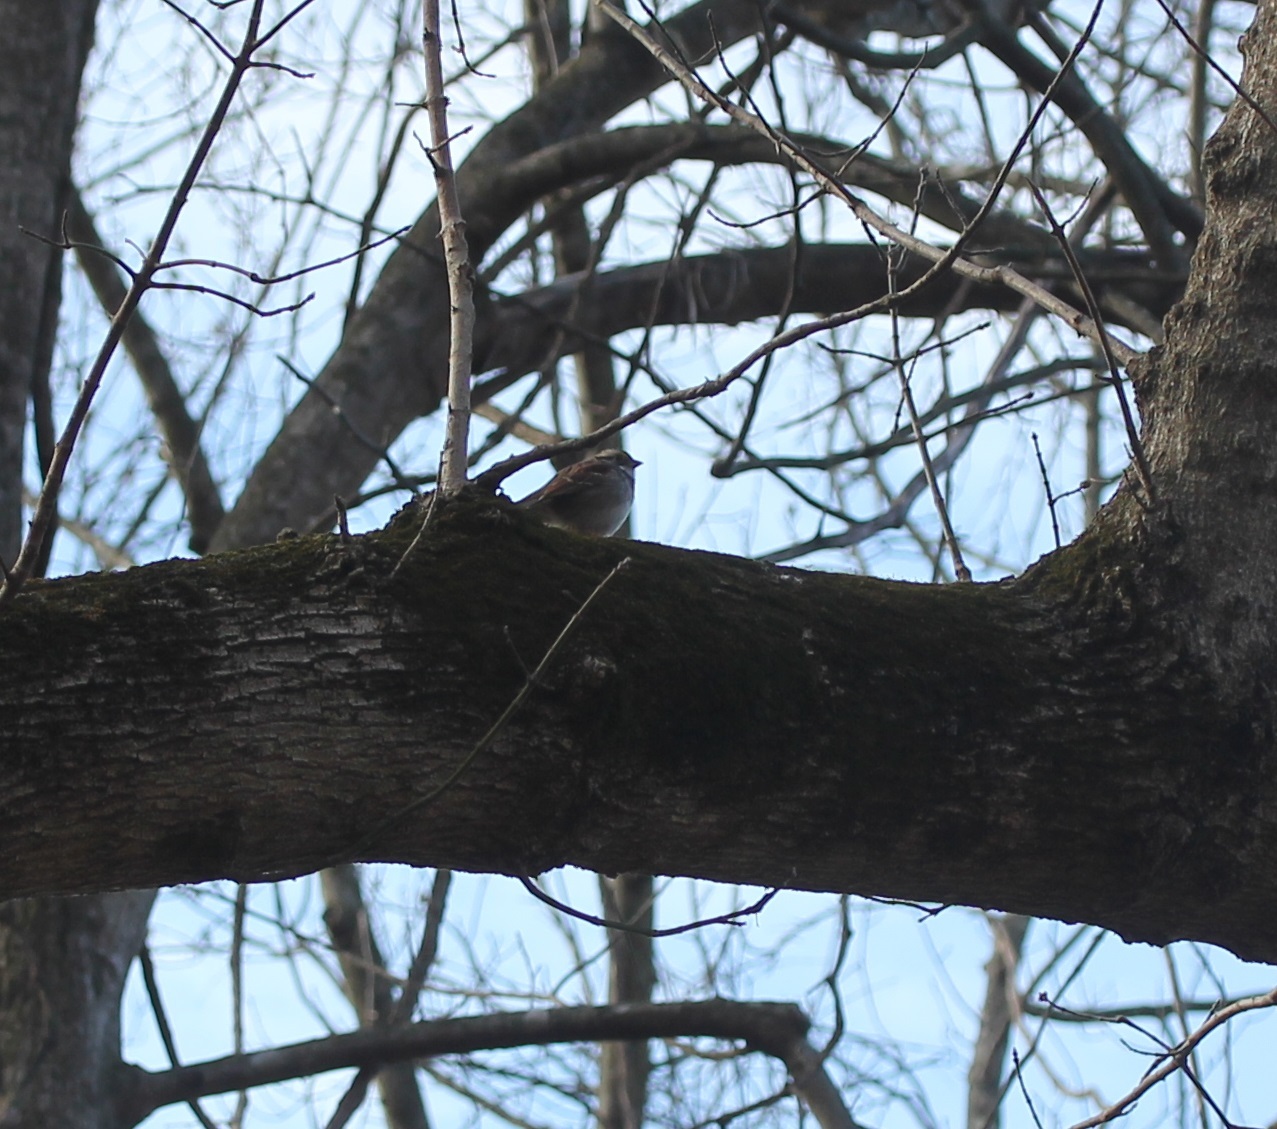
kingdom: Animalia
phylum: Chordata
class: Aves
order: Passeriformes
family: Passerellidae
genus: Zonotrichia
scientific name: Zonotrichia albicollis
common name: White-throated sparrow
